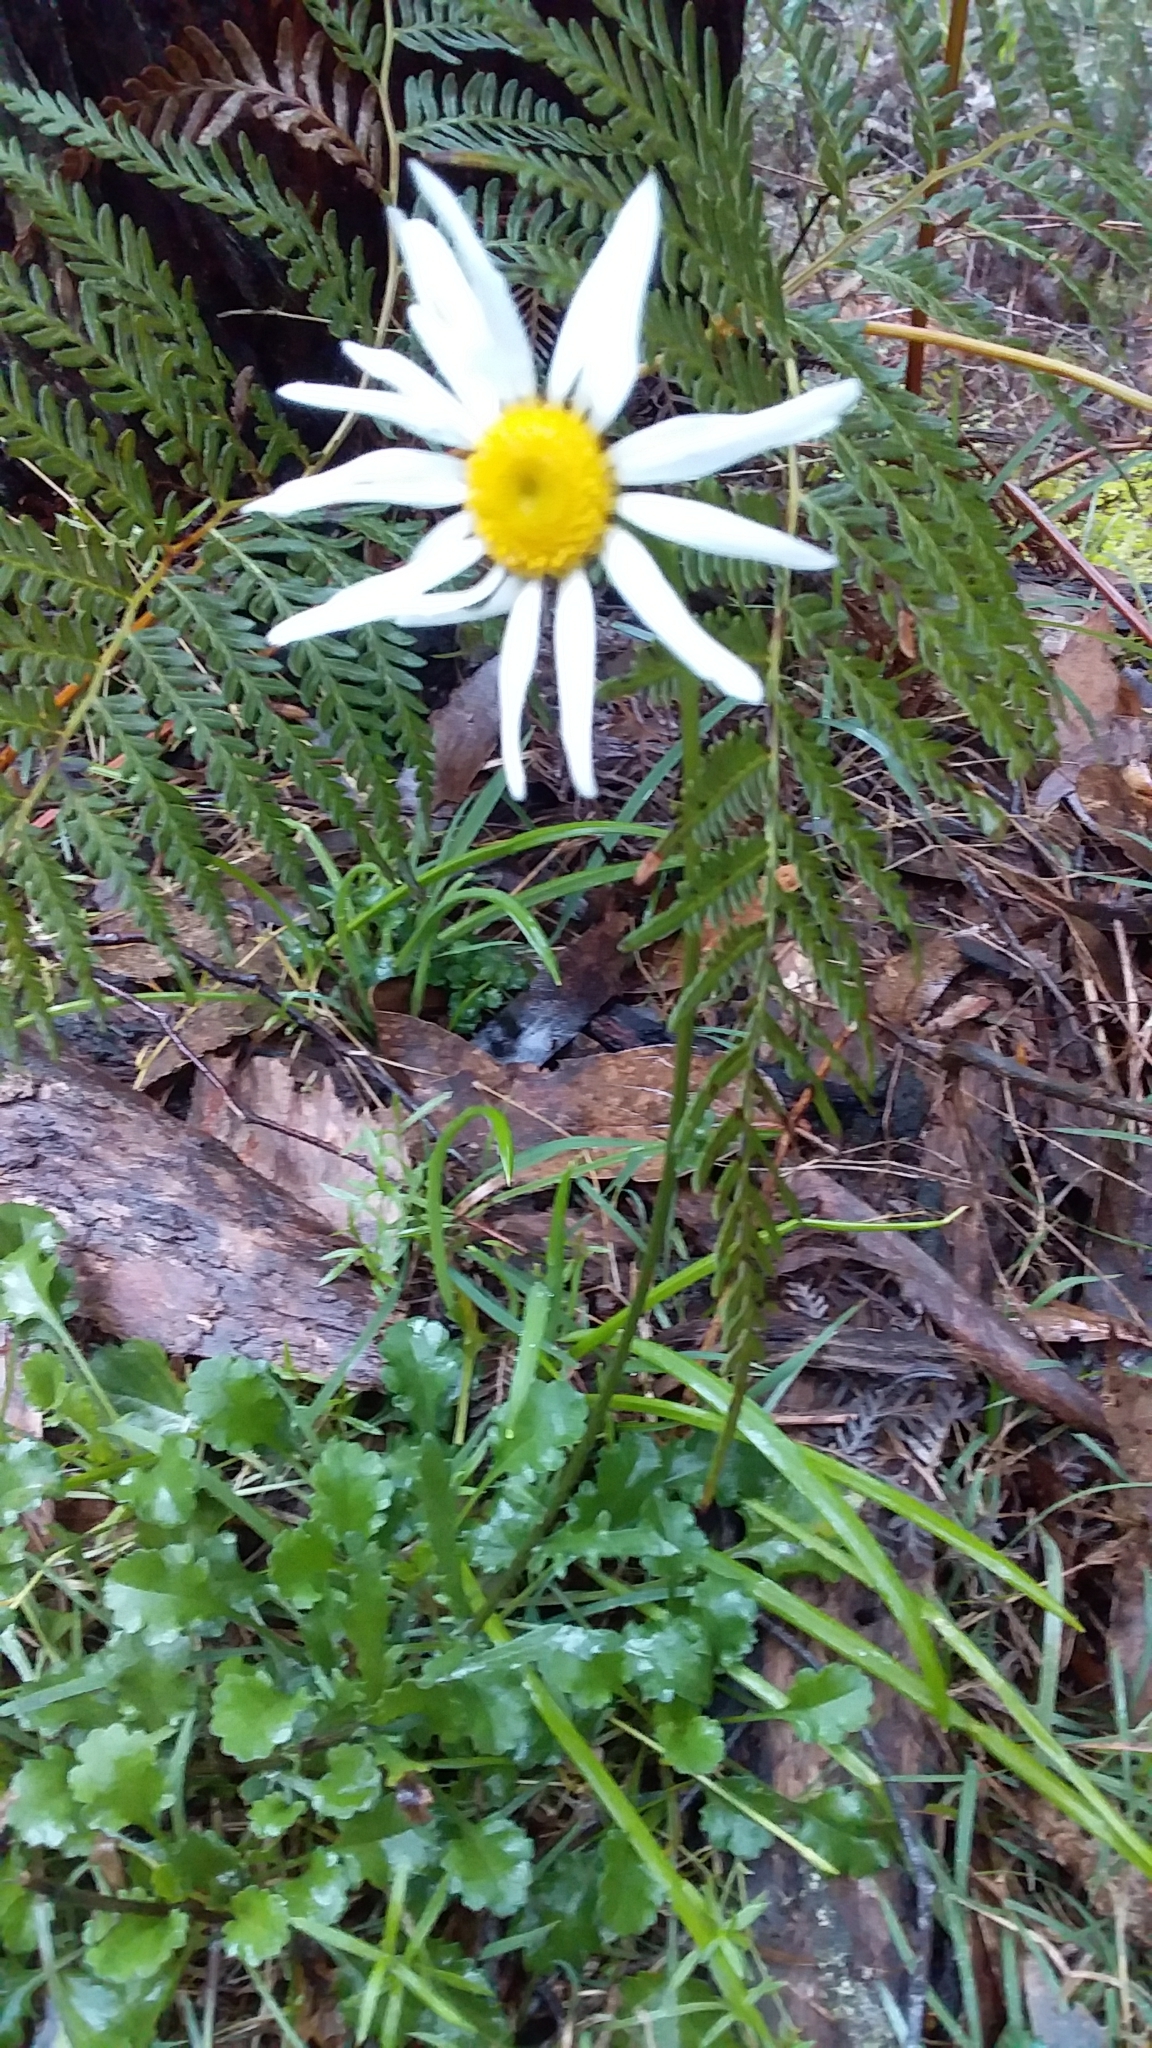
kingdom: Plantae
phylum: Tracheophyta
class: Magnoliopsida
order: Asterales
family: Asteraceae
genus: Leucanthemum
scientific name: Leucanthemum vulgare
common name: Oxeye daisy
